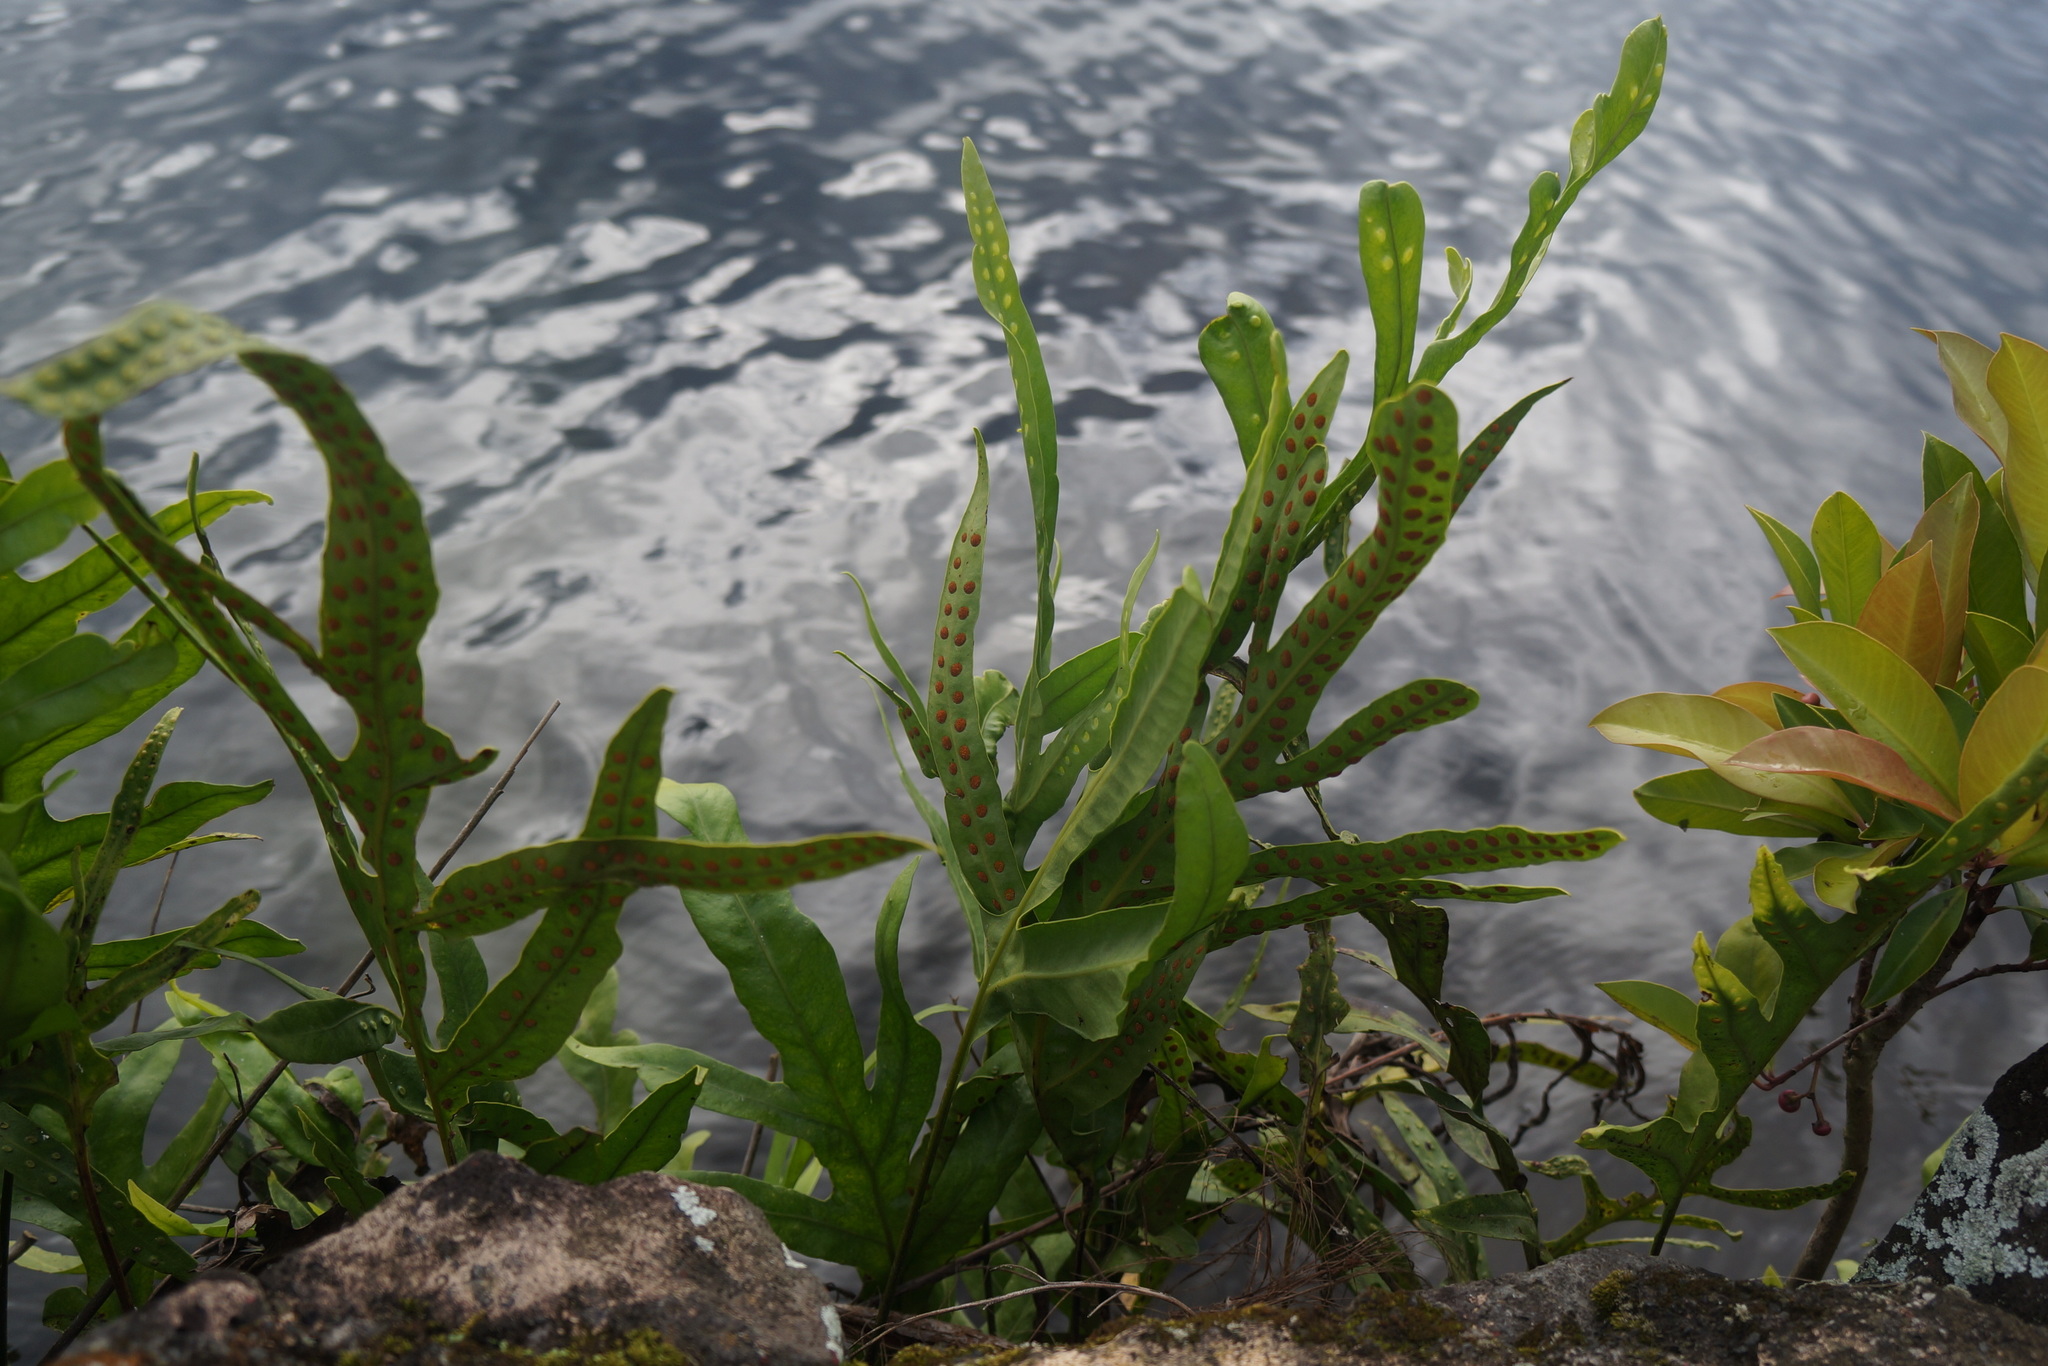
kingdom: Plantae
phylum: Tracheophyta
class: Polypodiopsida
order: Polypodiales
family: Polypodiaceae
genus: Microsorum
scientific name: Microsorum grossum
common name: Musk fern
